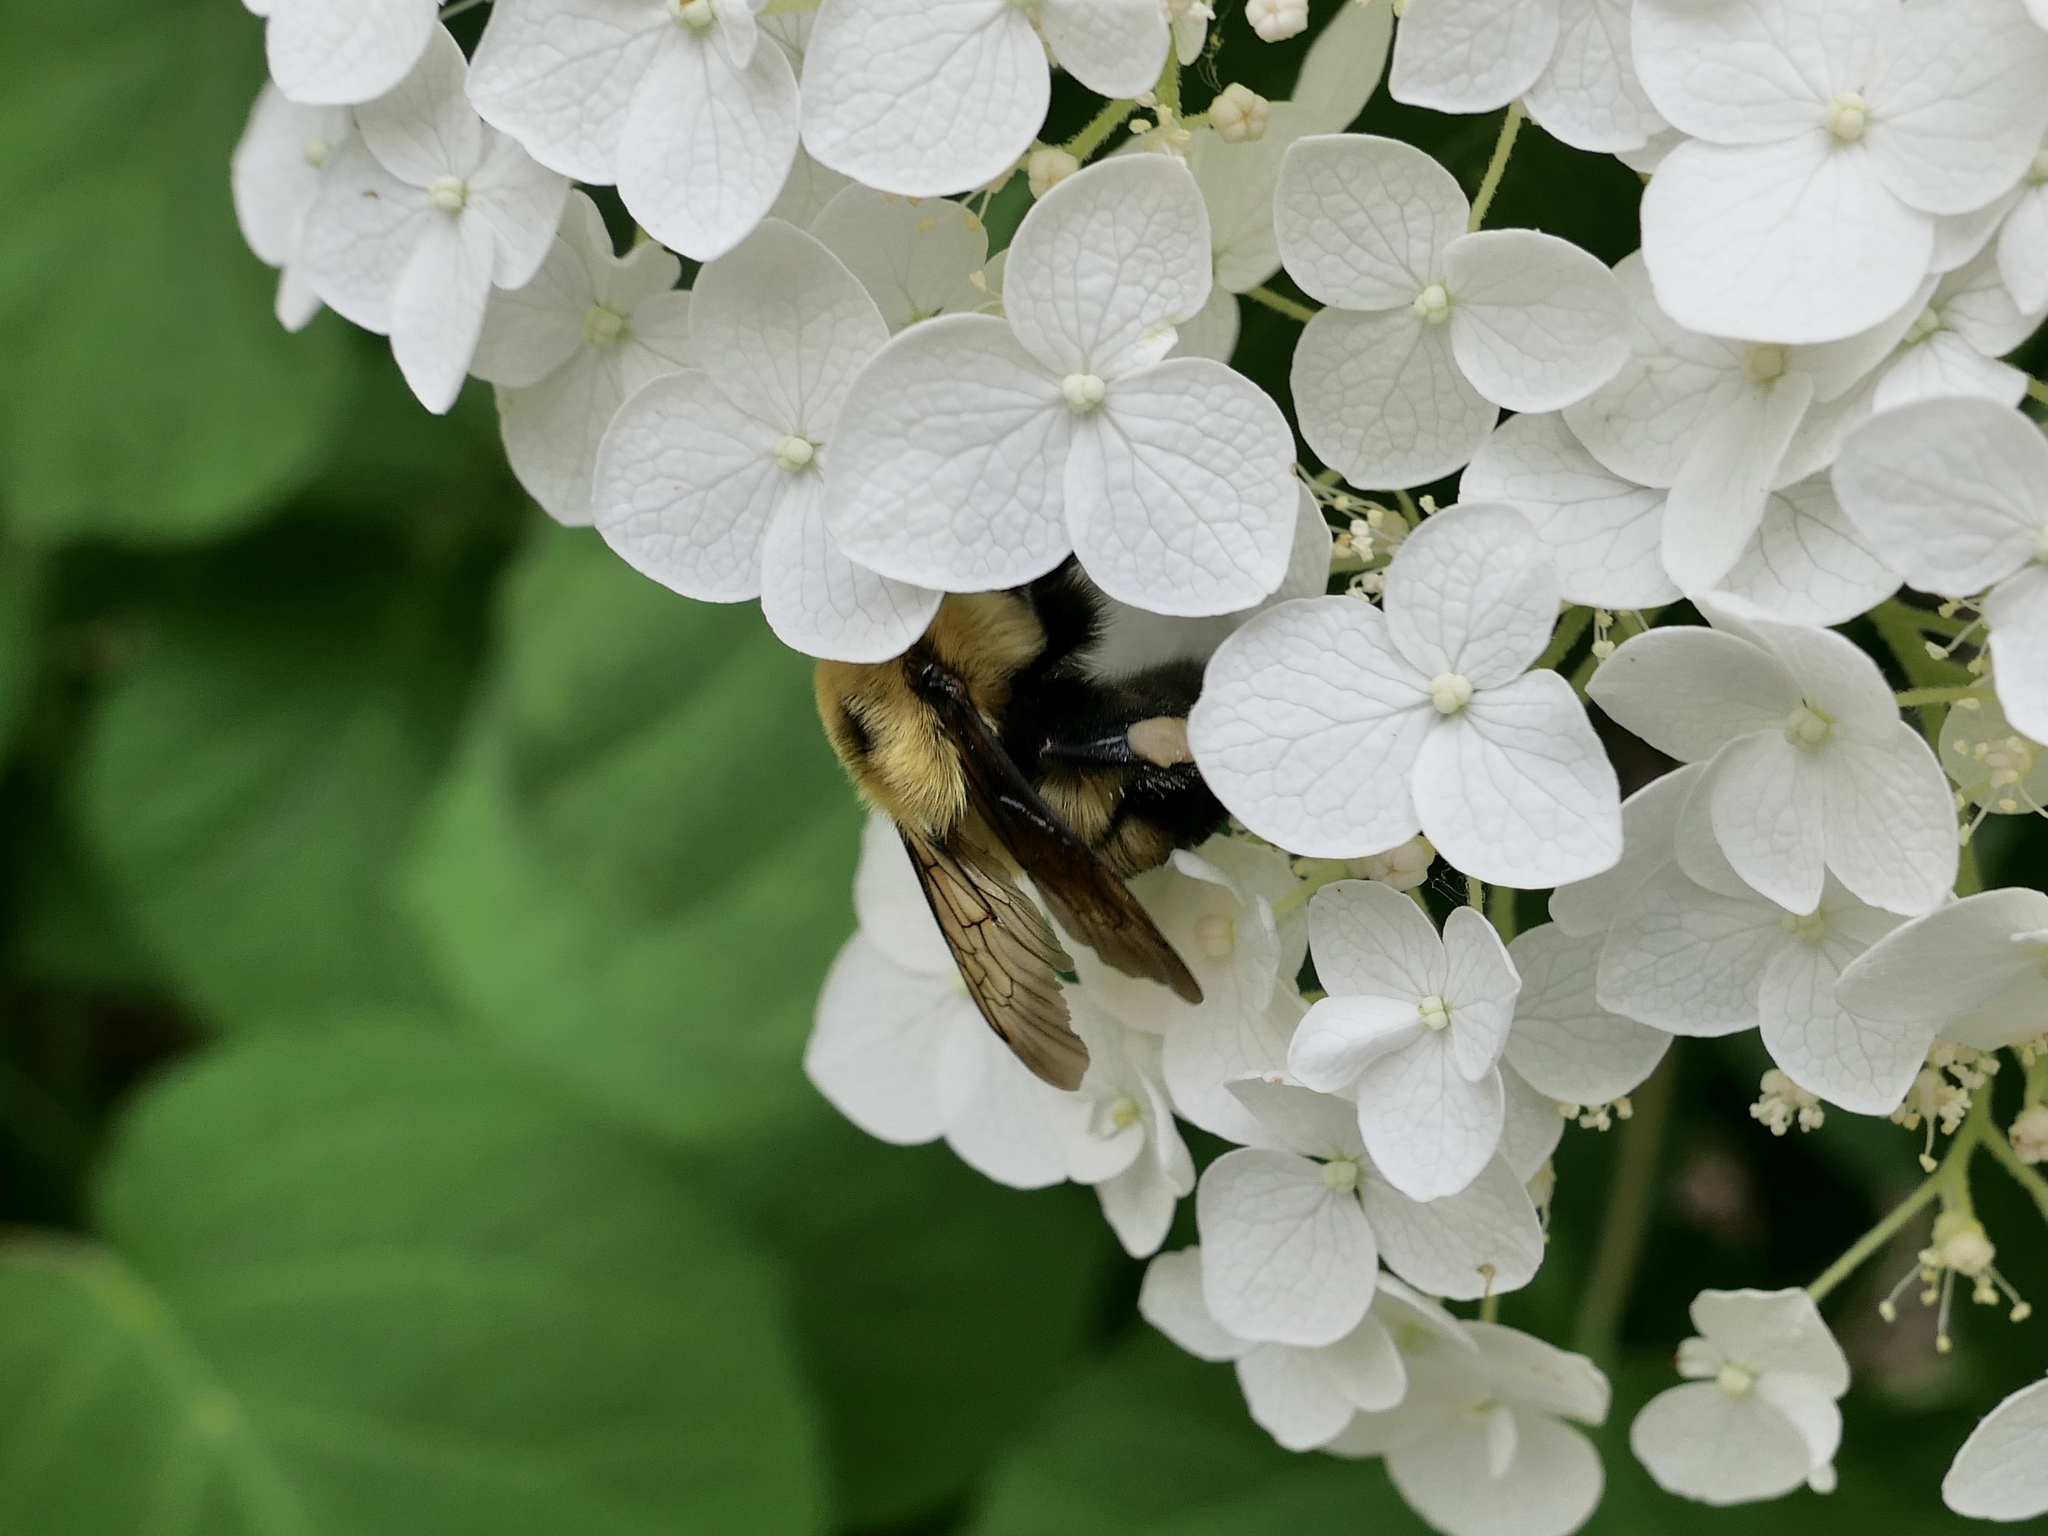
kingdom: Animalia
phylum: Arthropoda
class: Insecta
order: Hymenoptera
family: Apidae
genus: Bombus
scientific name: Bombus bimaculatus
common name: Two-spotted bumble bee
